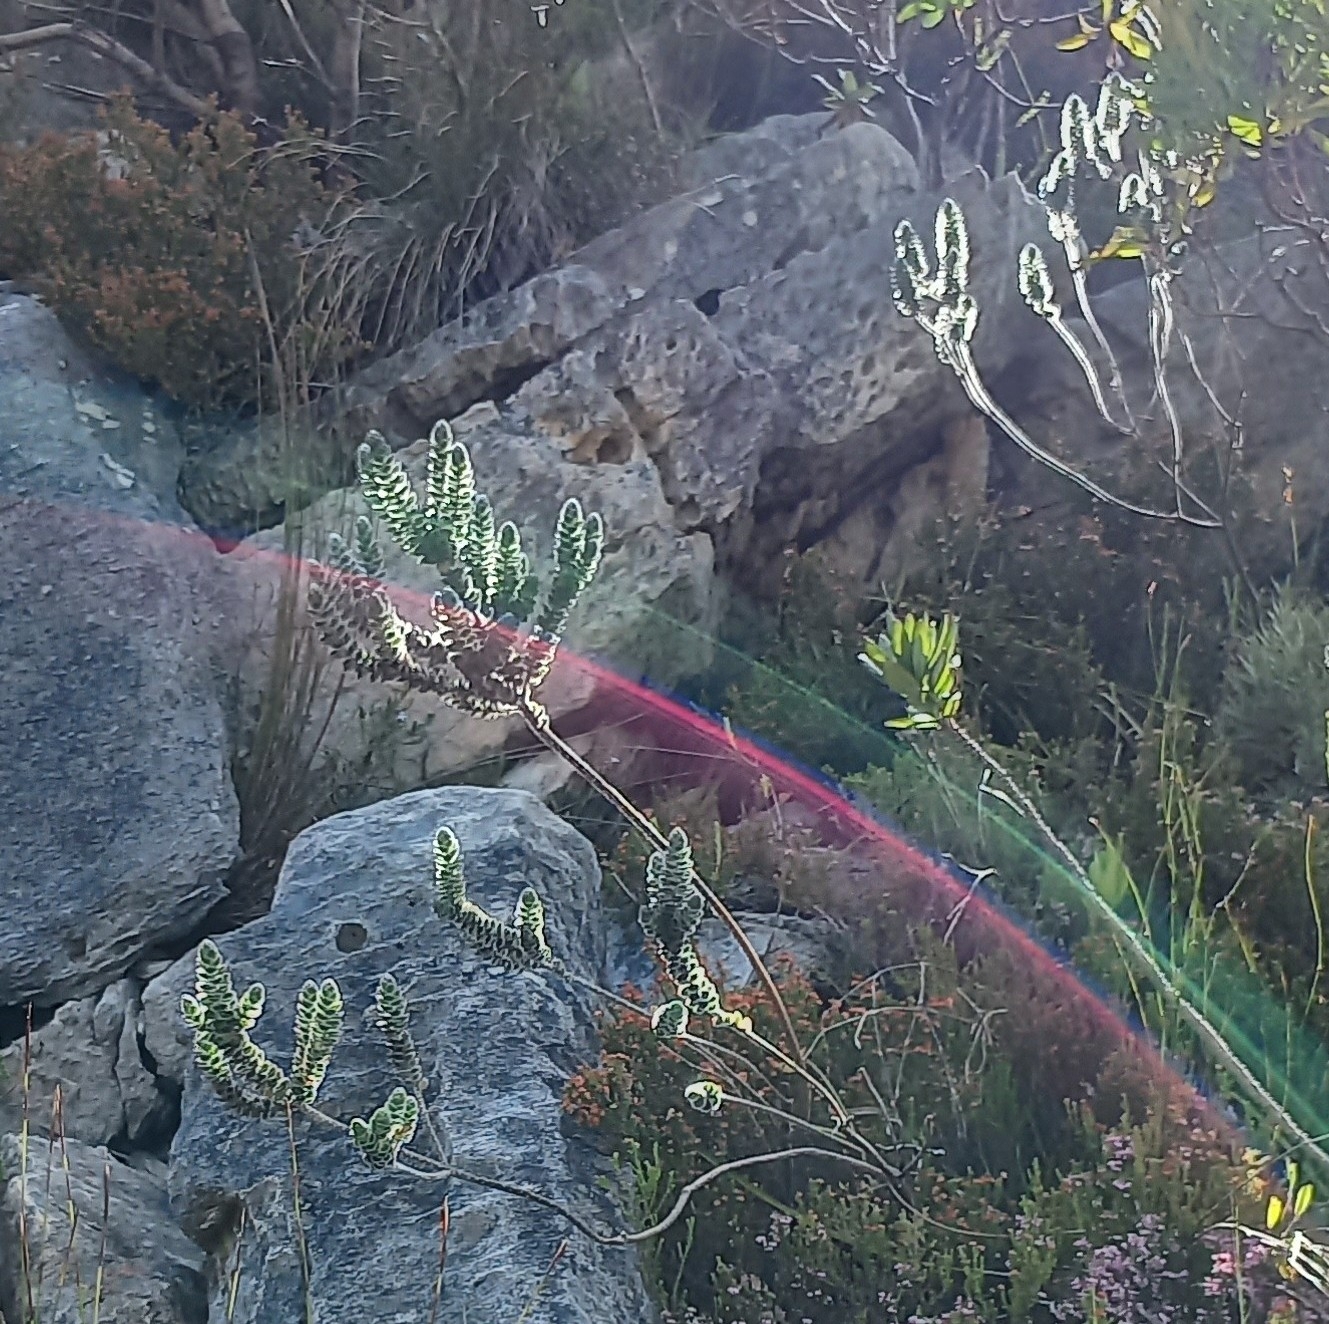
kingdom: Plantae
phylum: Tracheophyta
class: Magnoliopsida
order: Fabales
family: Fabaceae
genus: Liparia
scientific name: Liparia vestita
